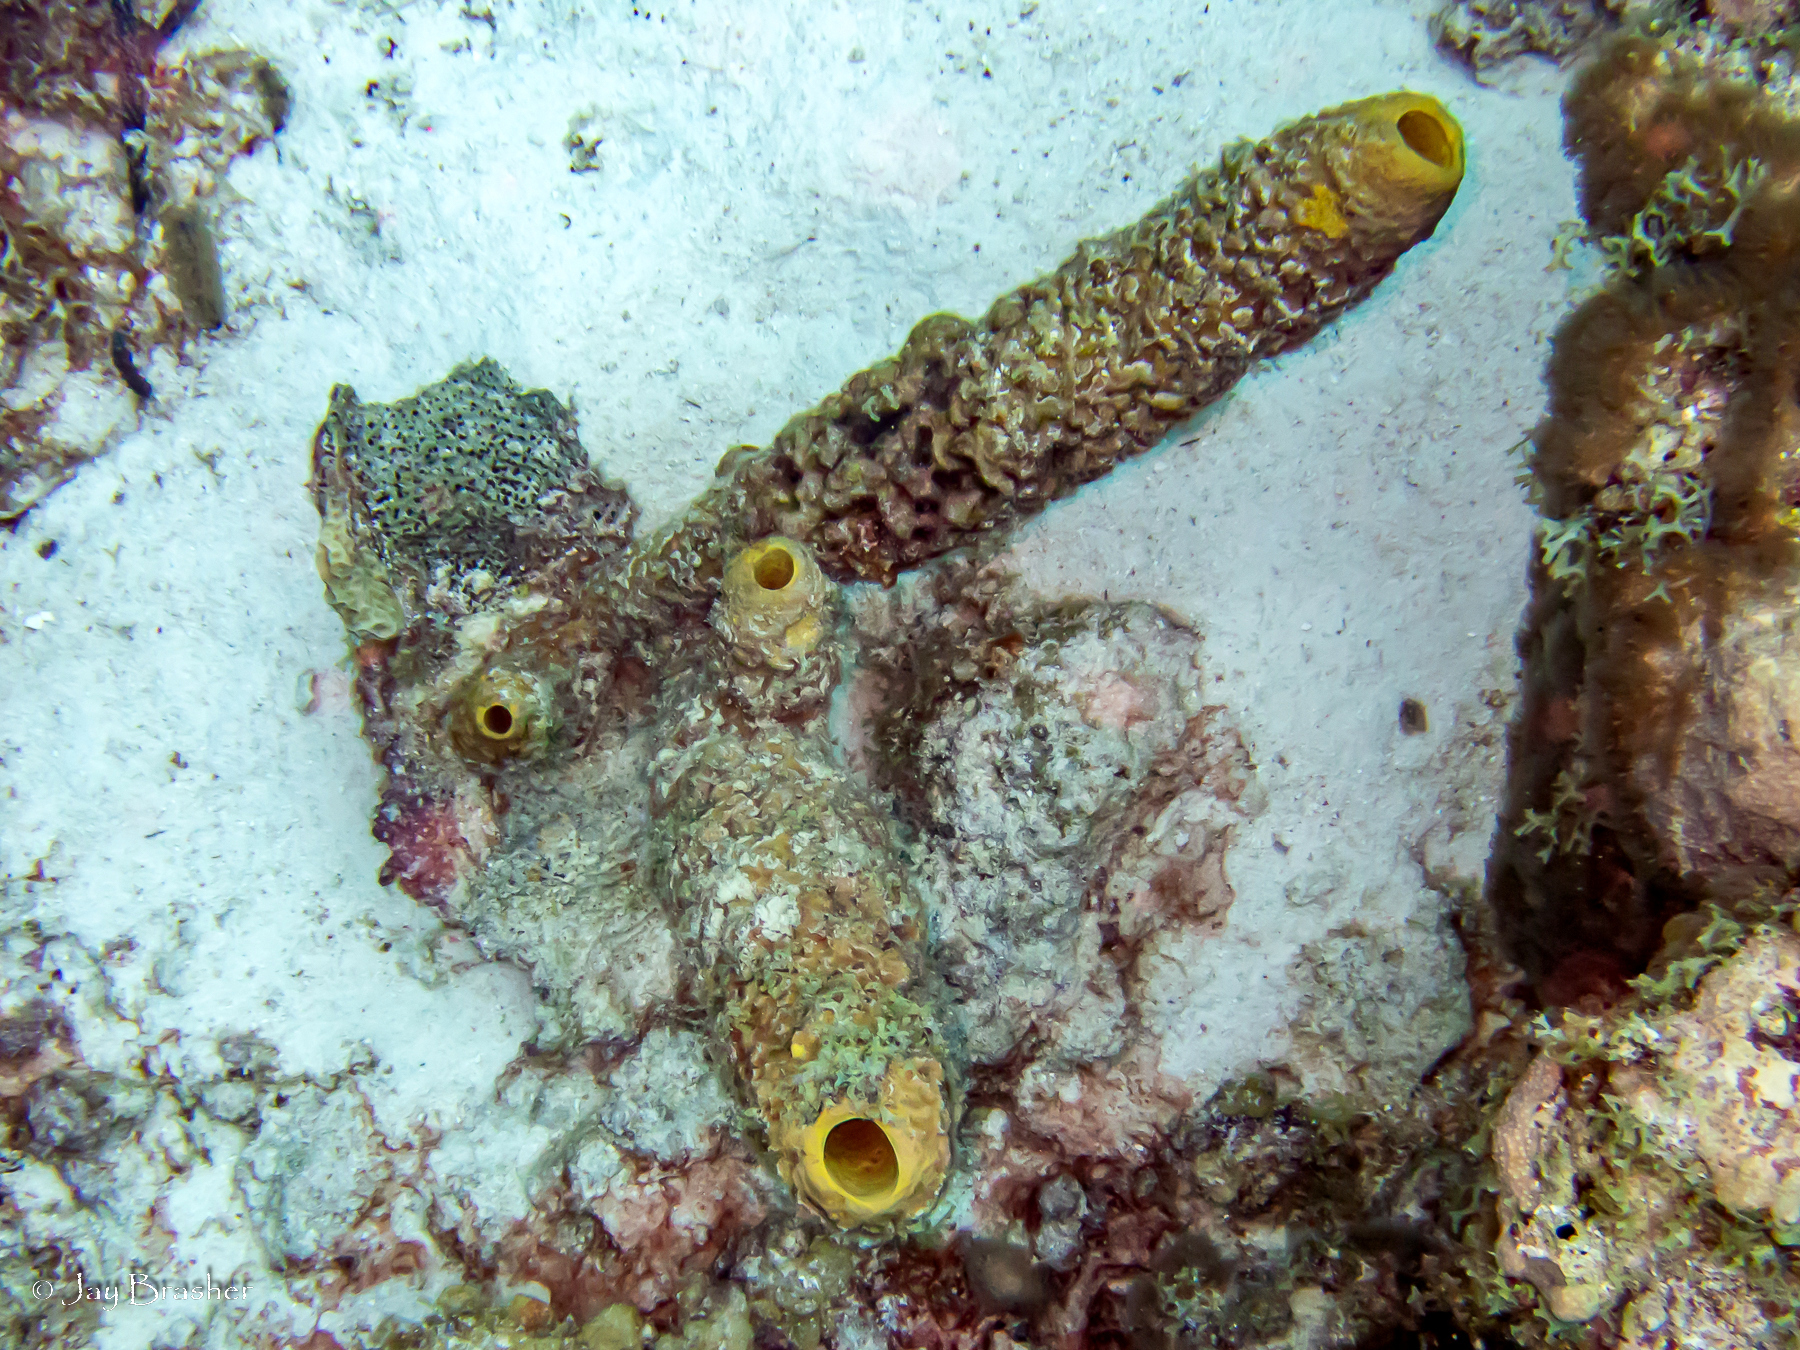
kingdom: Animalia
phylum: Porifera
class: Demospongiae
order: Verongiida
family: Aplysinidae
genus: Aplysina
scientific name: Aplysina archeri
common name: Stove-pipe sponge
